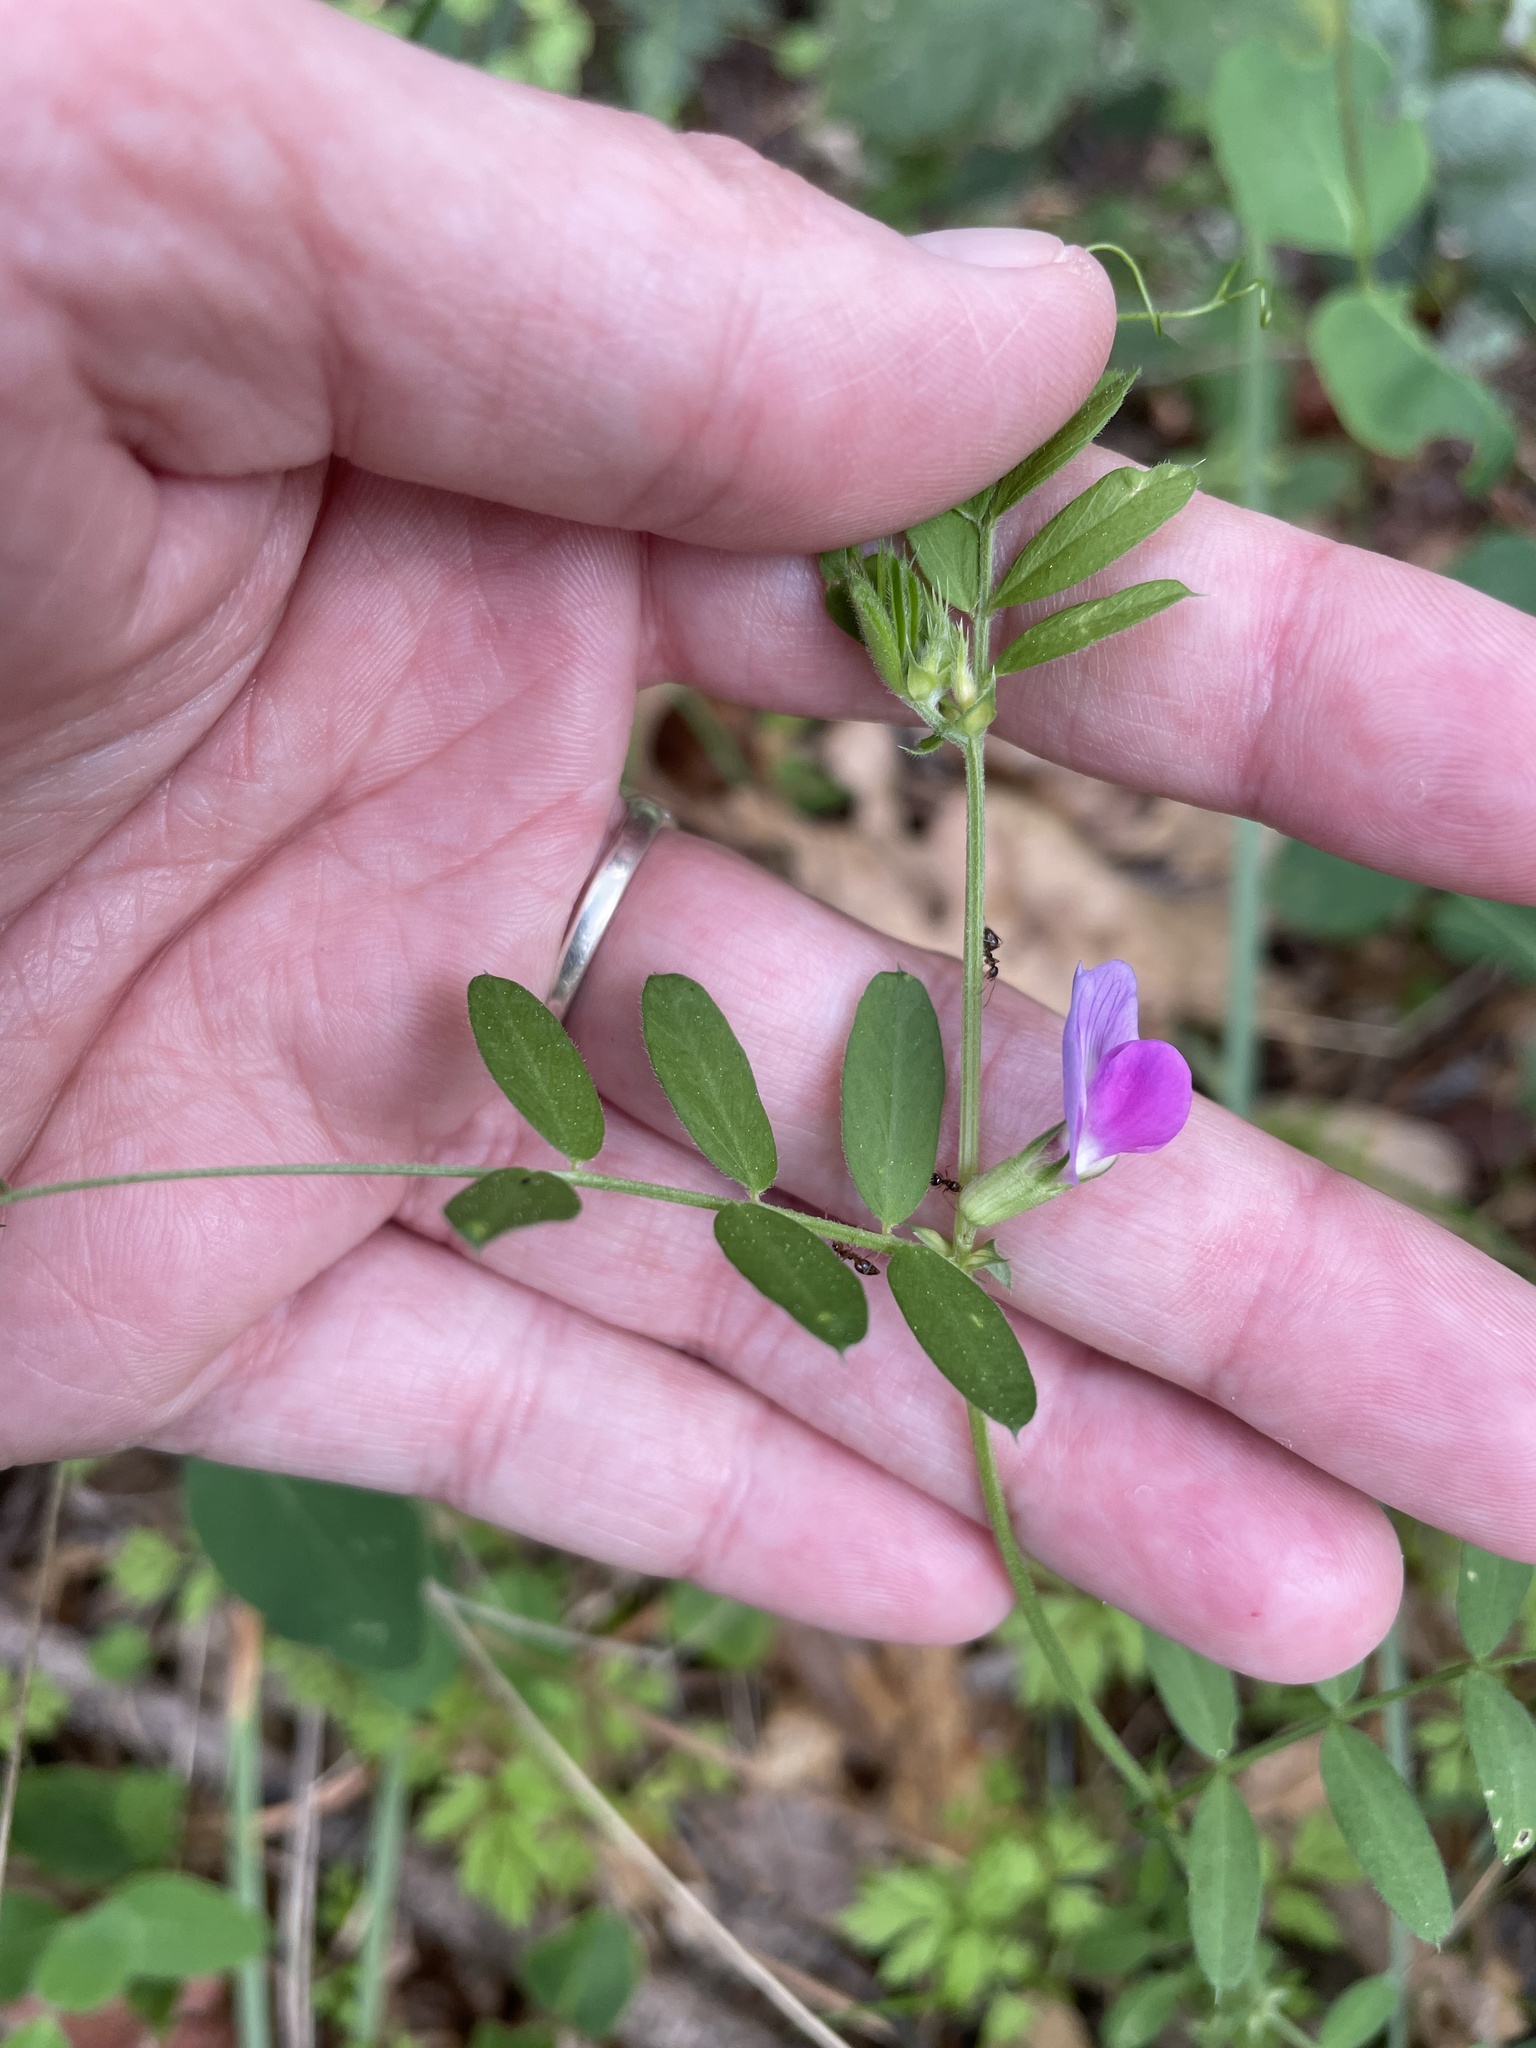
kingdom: Plantae
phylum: Tracheophyta
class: Magnoliopsida
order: Fabales
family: Fabaceae
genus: Vicia
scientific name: Vicia sativa
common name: Garden vetch
